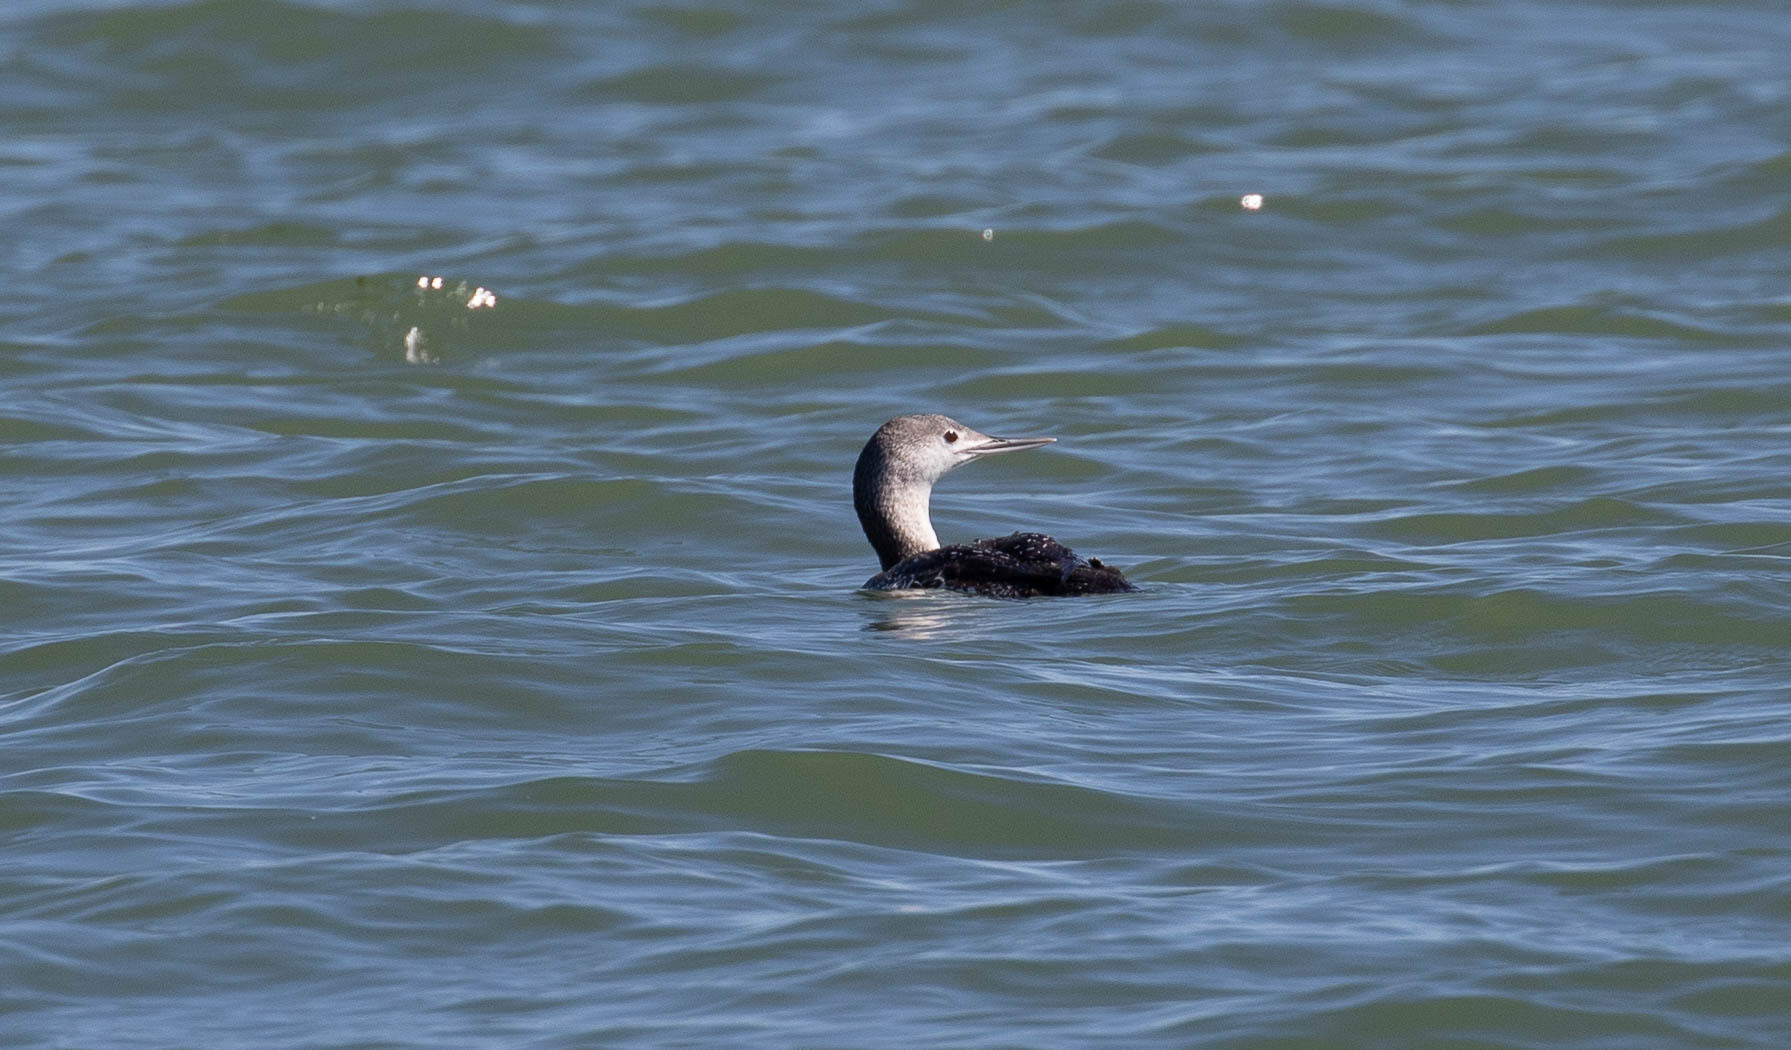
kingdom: Animalia
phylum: Chordata
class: Aves
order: Gaviiformes
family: Gaviidae
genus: Gavia
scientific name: Gavia stellata
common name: Red-throated loon
